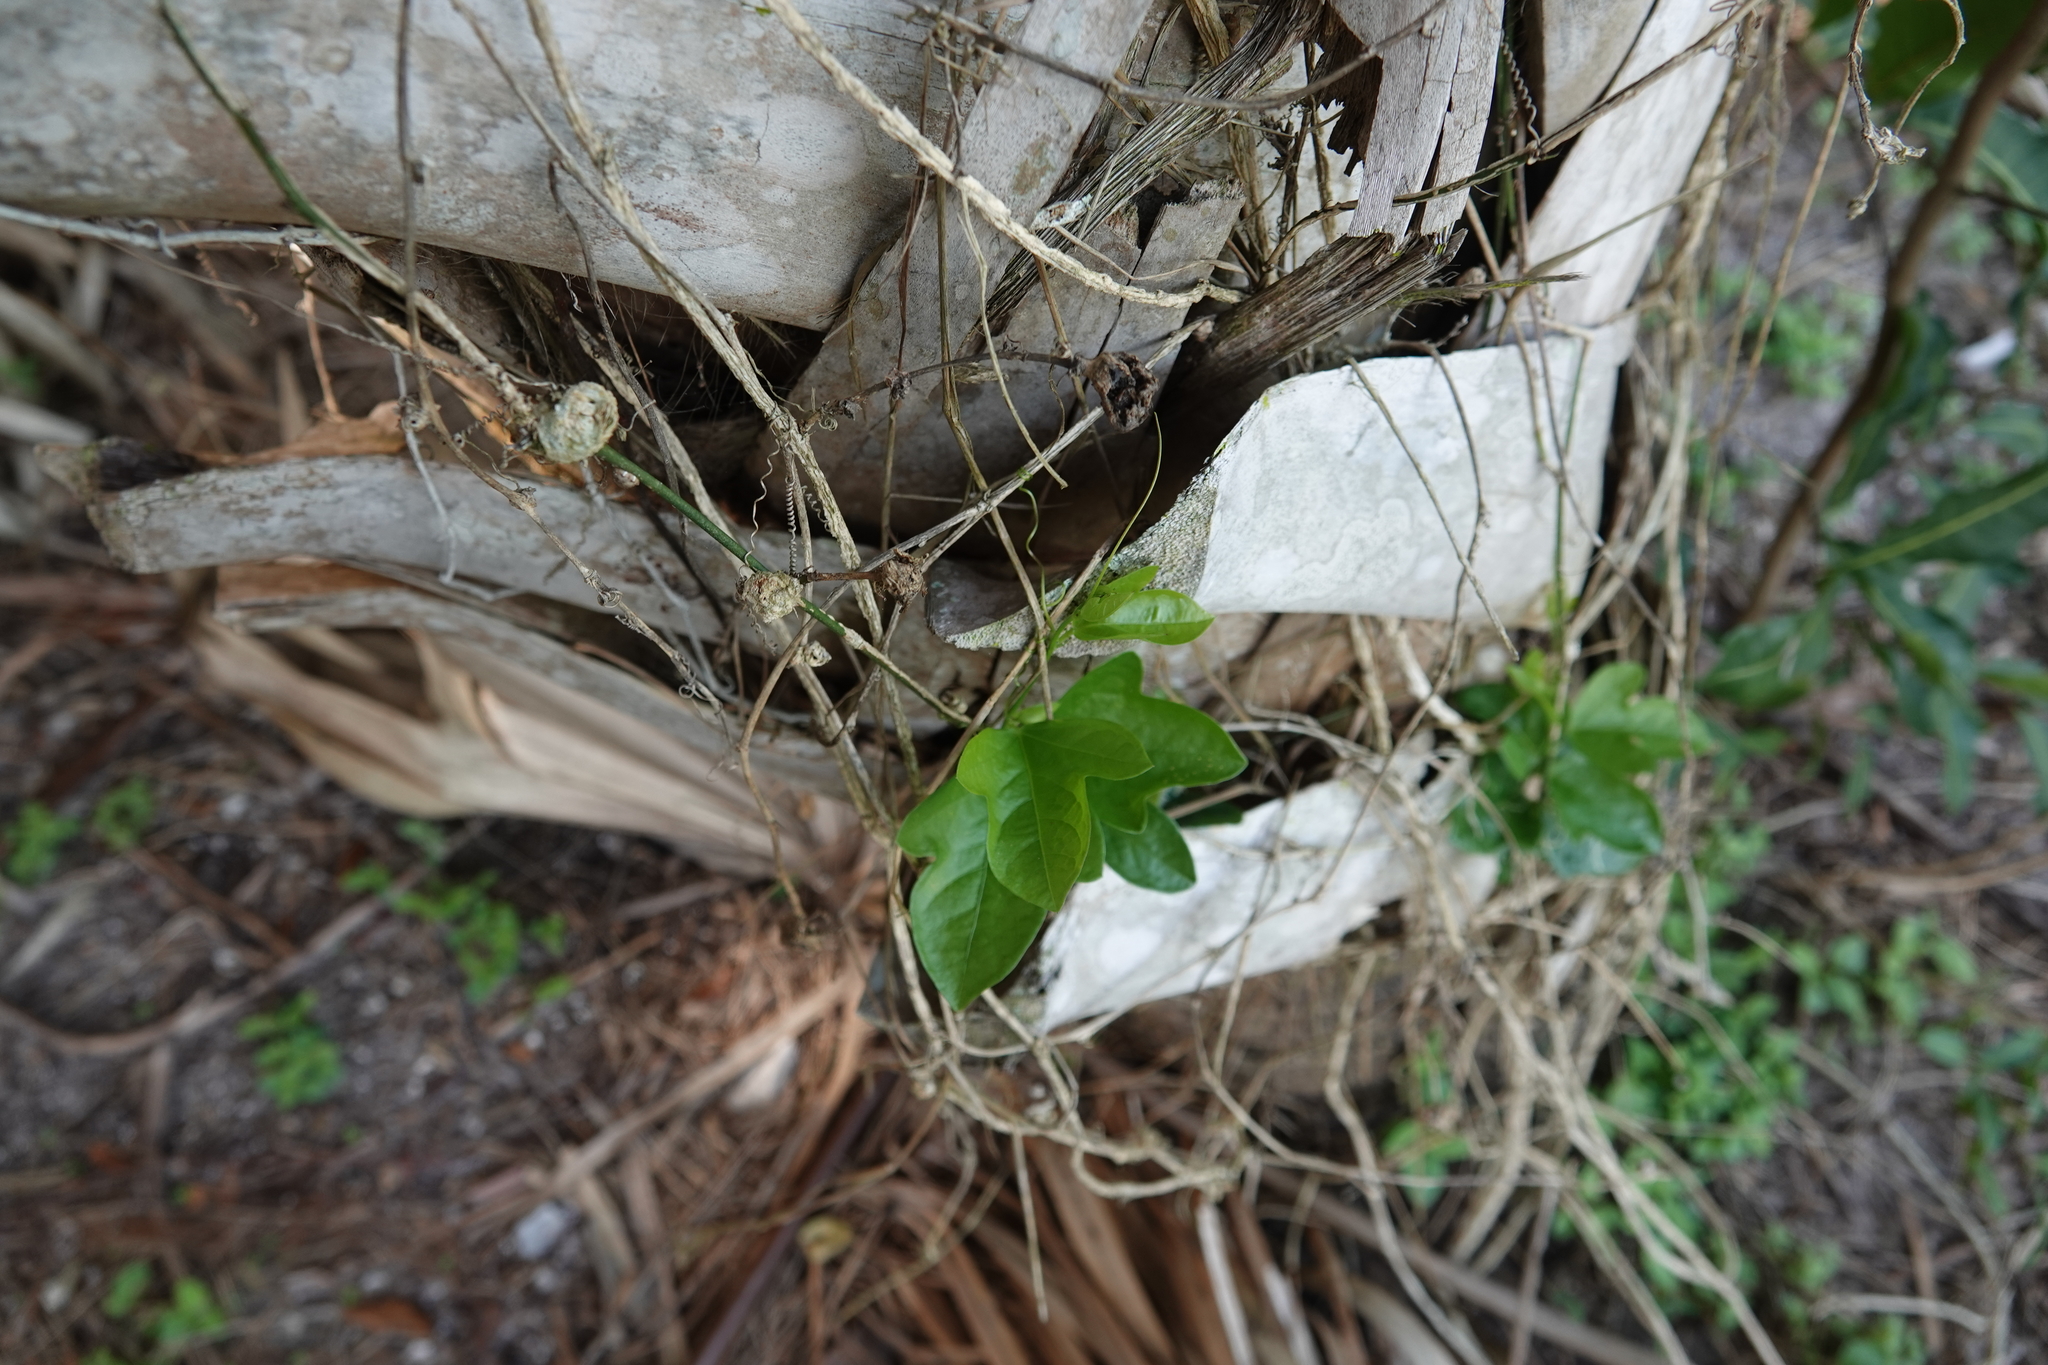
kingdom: Plantae
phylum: Tracheophyta
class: Magnoliopsida
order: Malpighiales
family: Passifloraceae
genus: Passiflora
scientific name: Passiflora pallida
